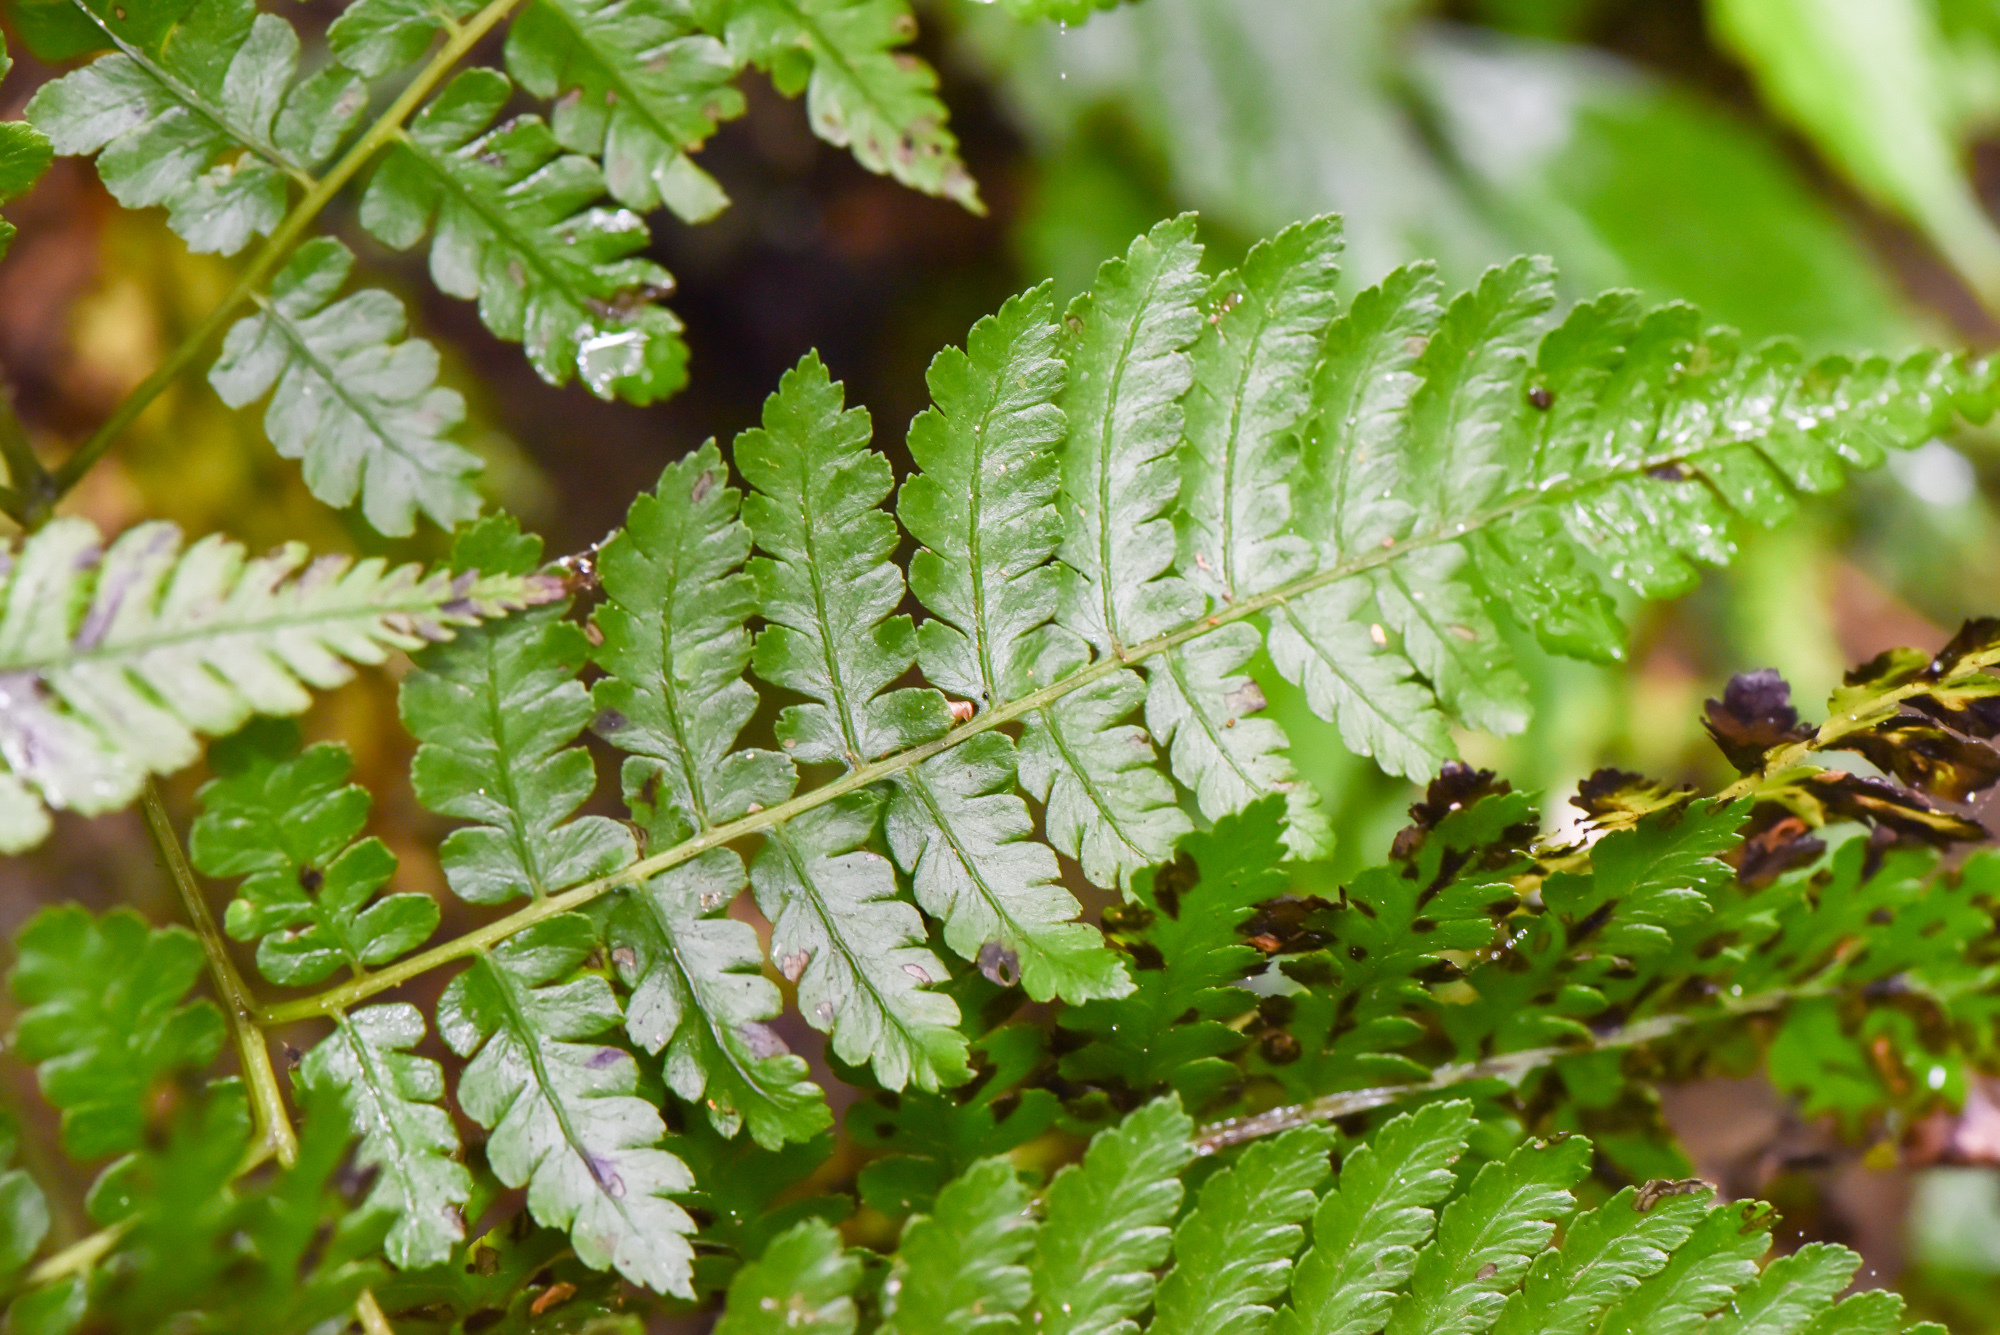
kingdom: Plantae
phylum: Tracheophyta
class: Polypodiopsida
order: Polypodiales
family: Athyriaceae
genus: Diplazium
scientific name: Diplazium kawakamii
